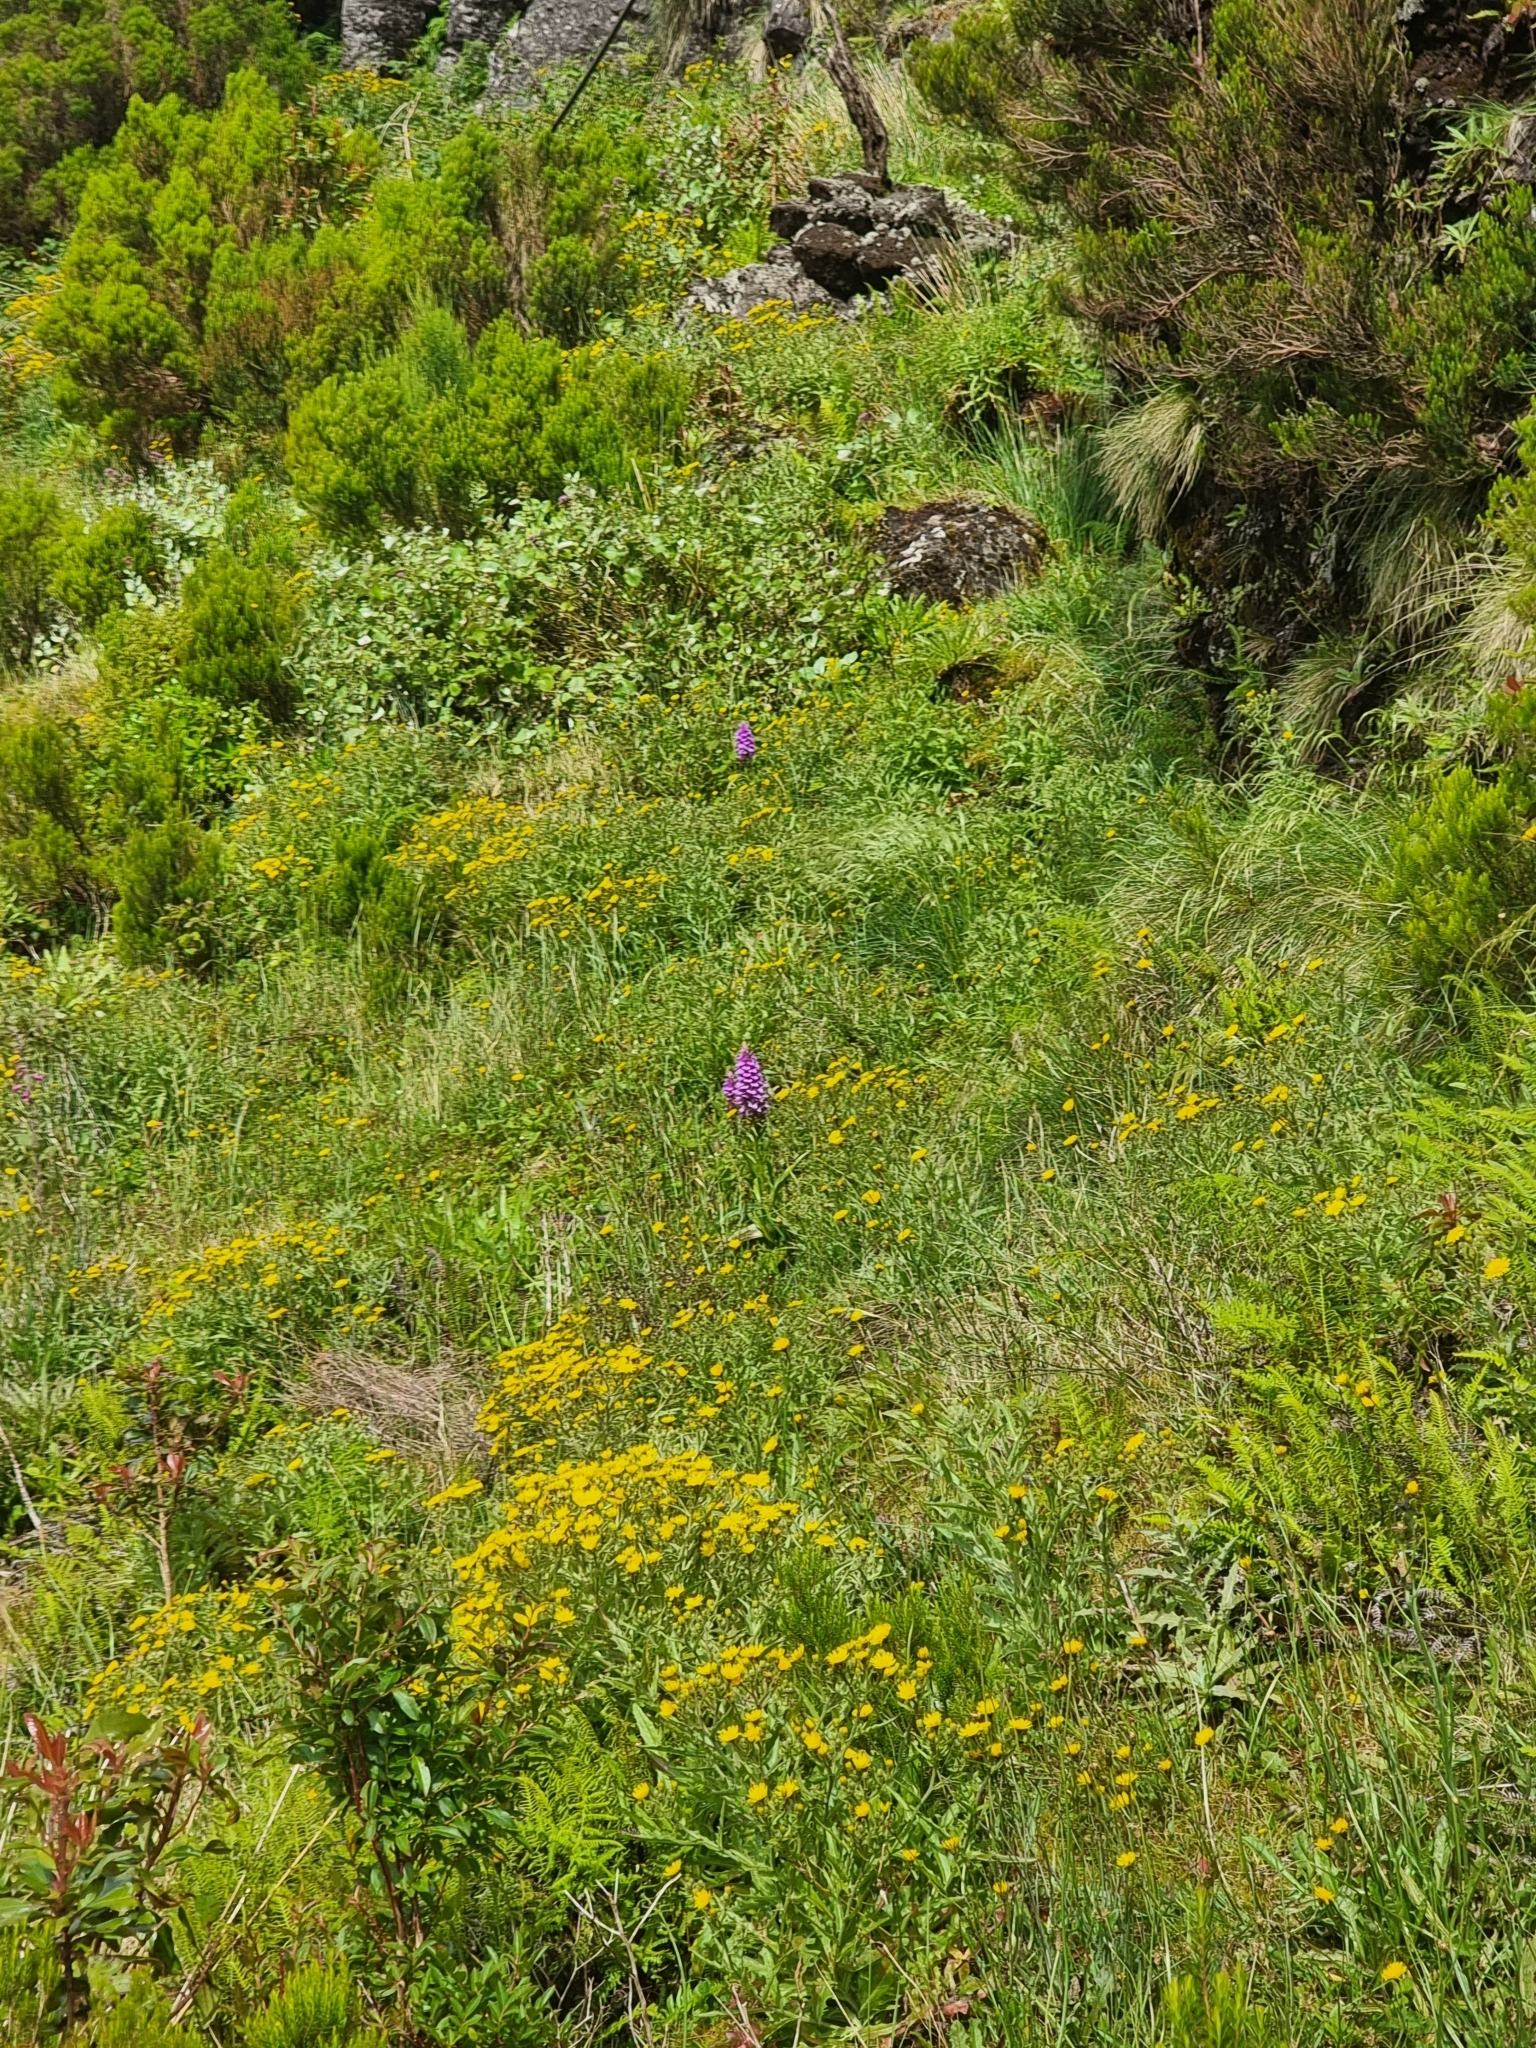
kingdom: Plantae
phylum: Tracheophyta
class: Liliopsida
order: Asparagales
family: Orchidaceae
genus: Dactylorhiza
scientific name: Dactylorhiza foliosa
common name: Richly-leaved dactylorhiza
